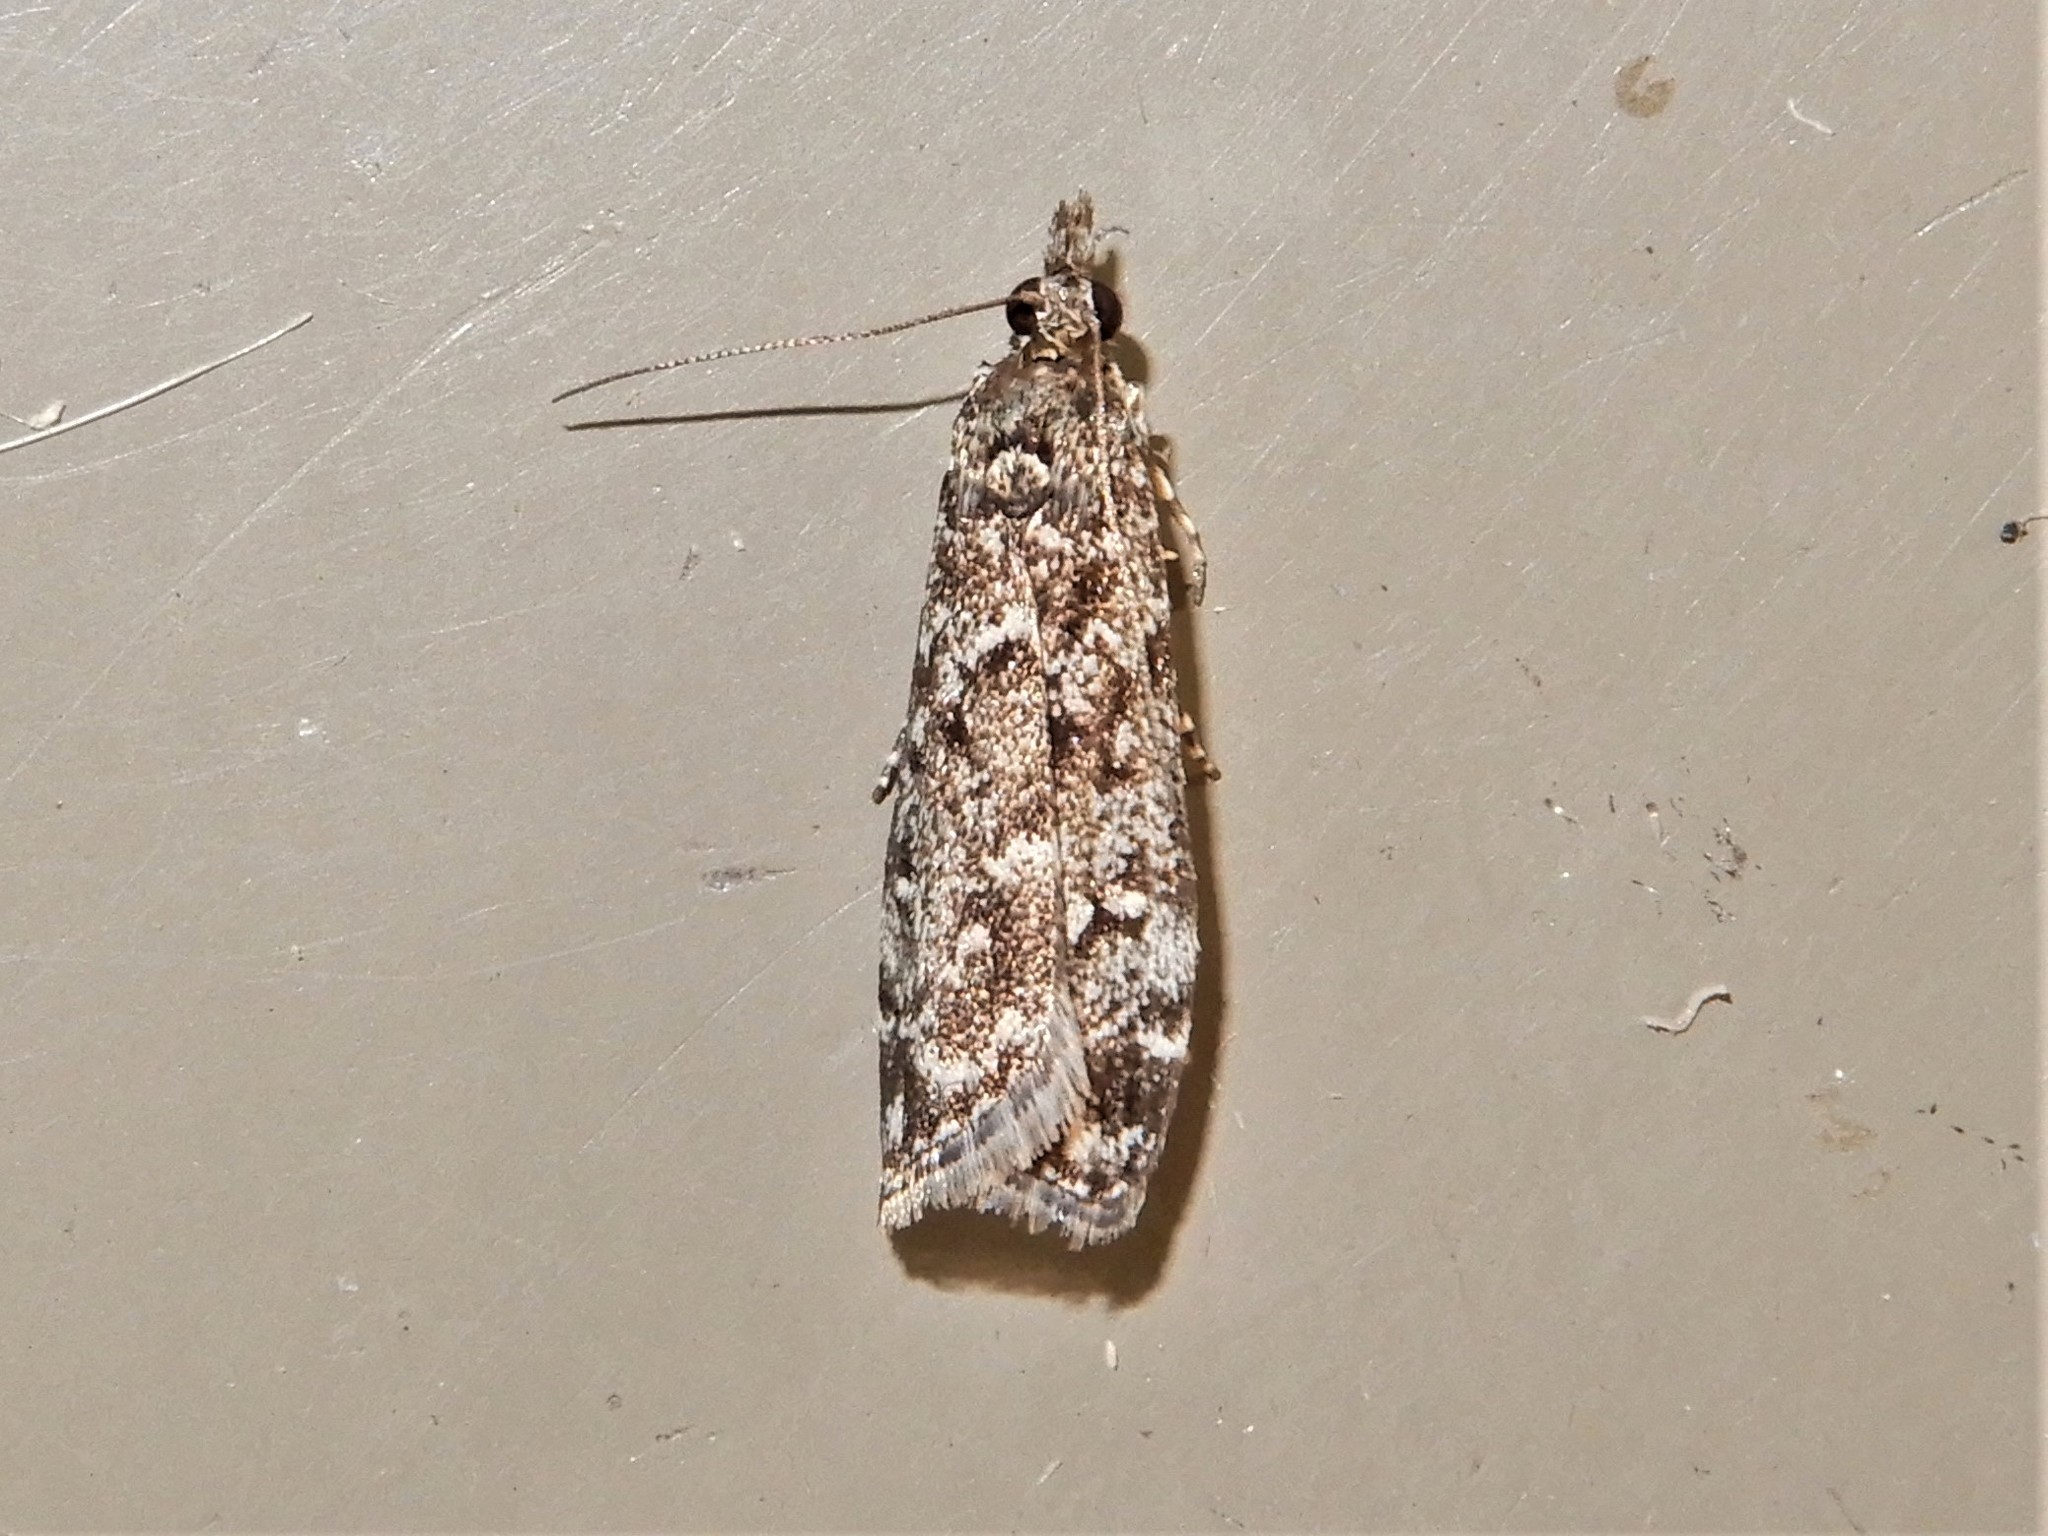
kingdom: Animalia
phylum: Arthropoda
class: Insecta
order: Lepidoptera
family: Crambidae
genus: Eudonia
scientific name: Eudonia philerga
